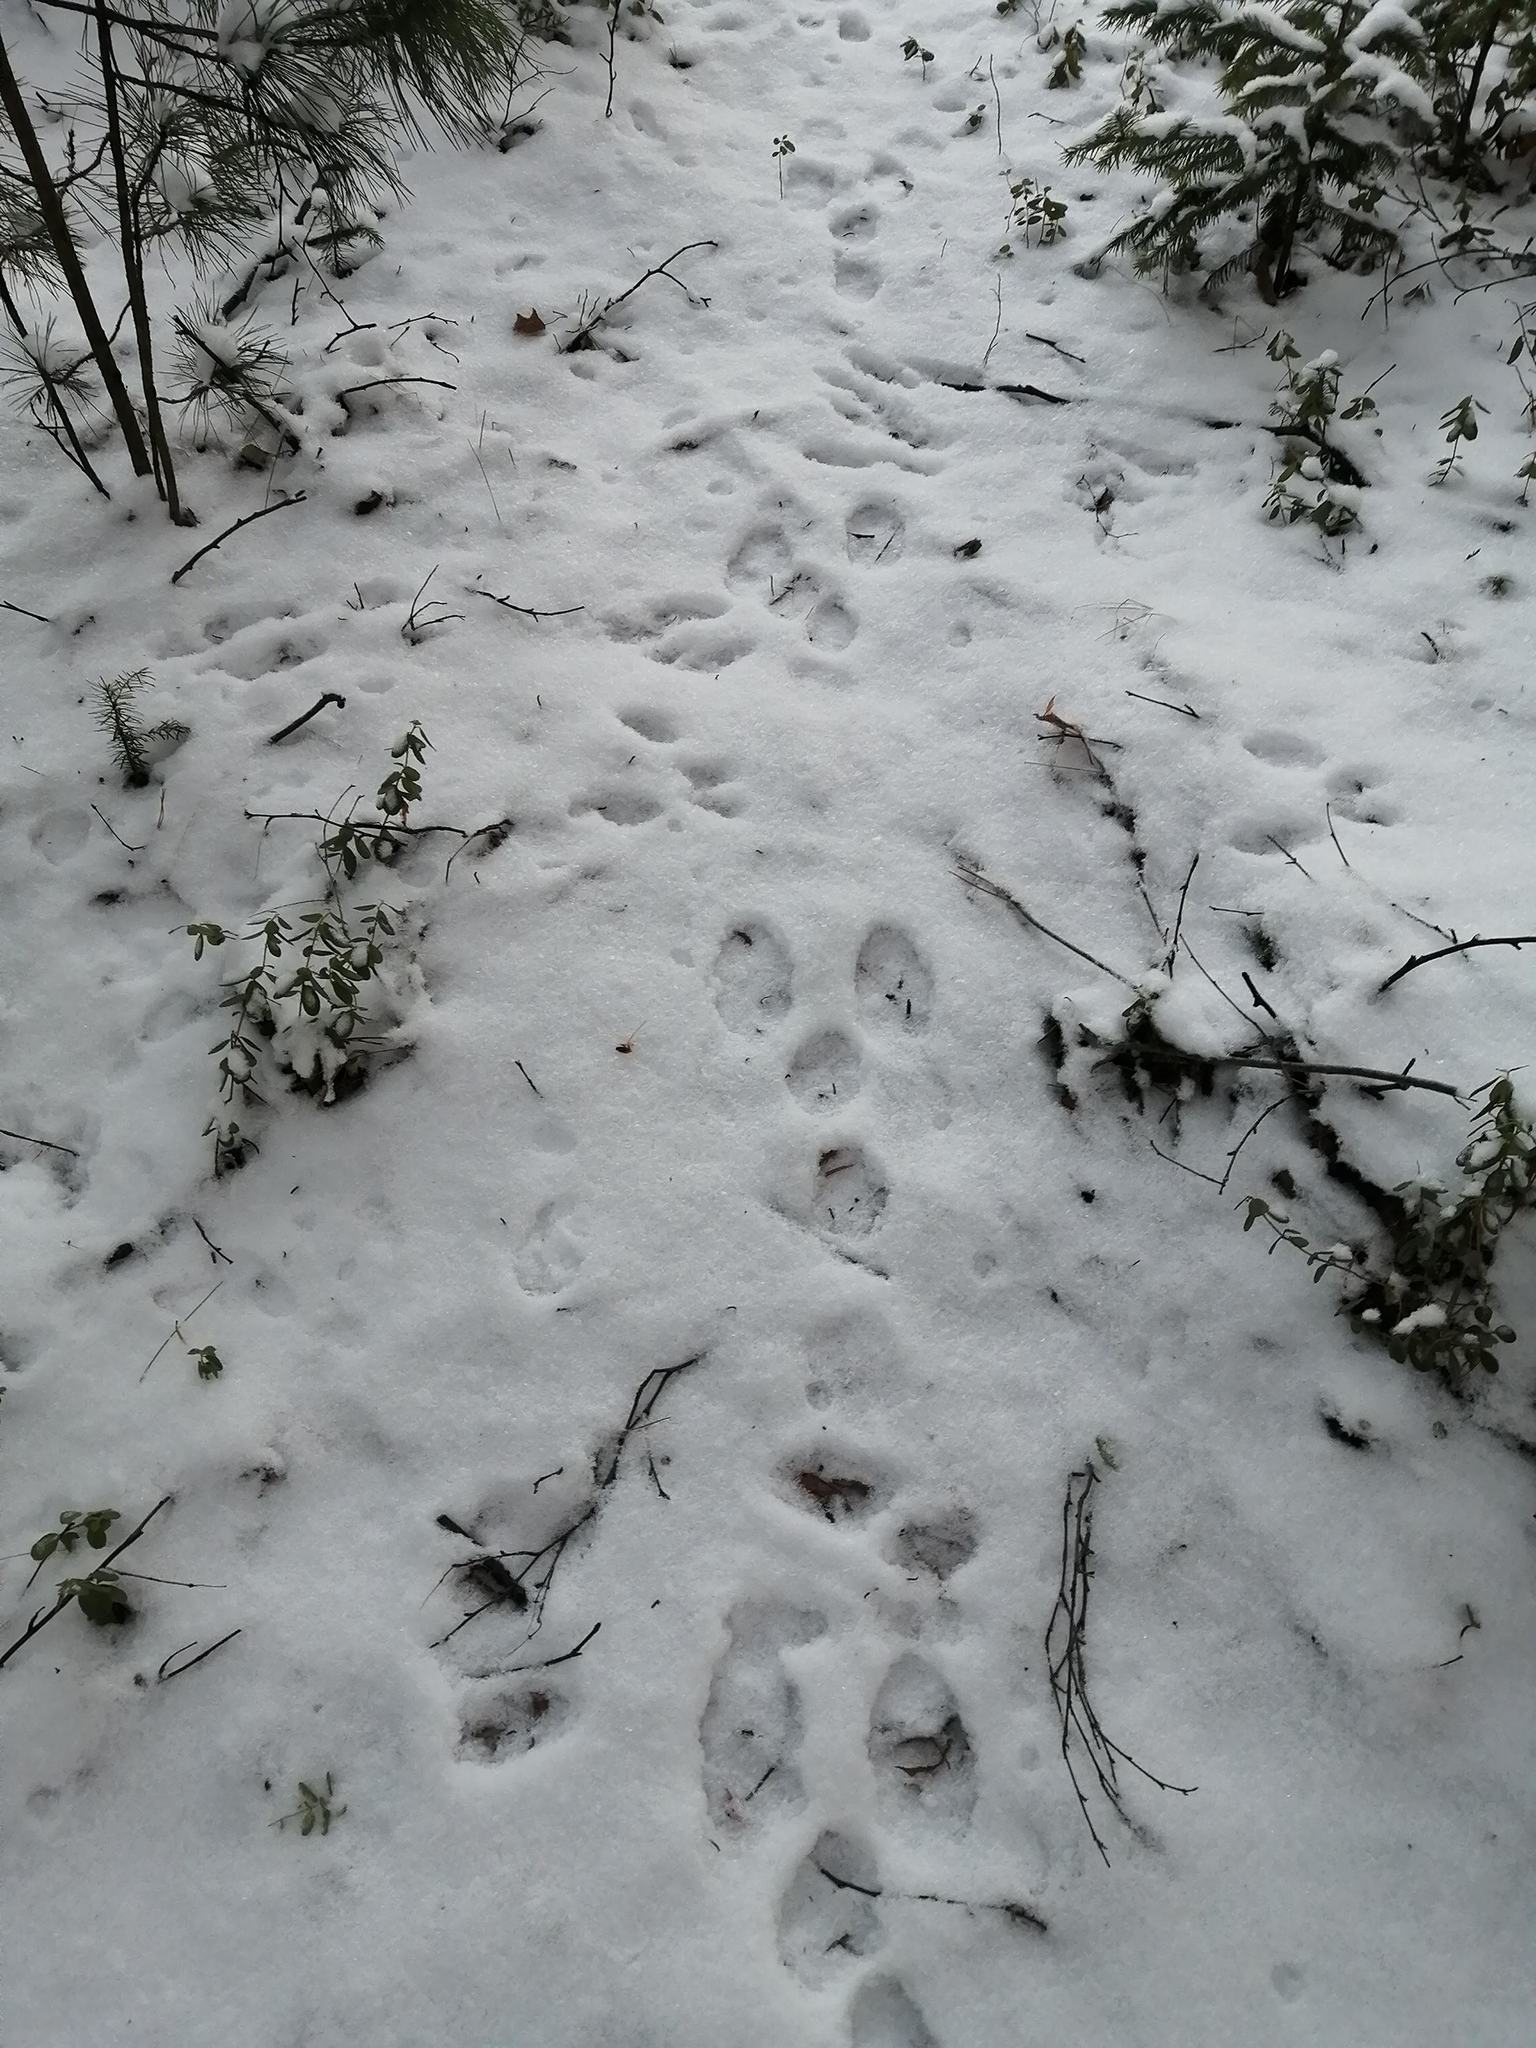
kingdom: Animalia
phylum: Chordata
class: Mammalia
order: Lagomorpha
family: Leporidae
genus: Lepus
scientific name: Lepus timidus
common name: Mountain hare
